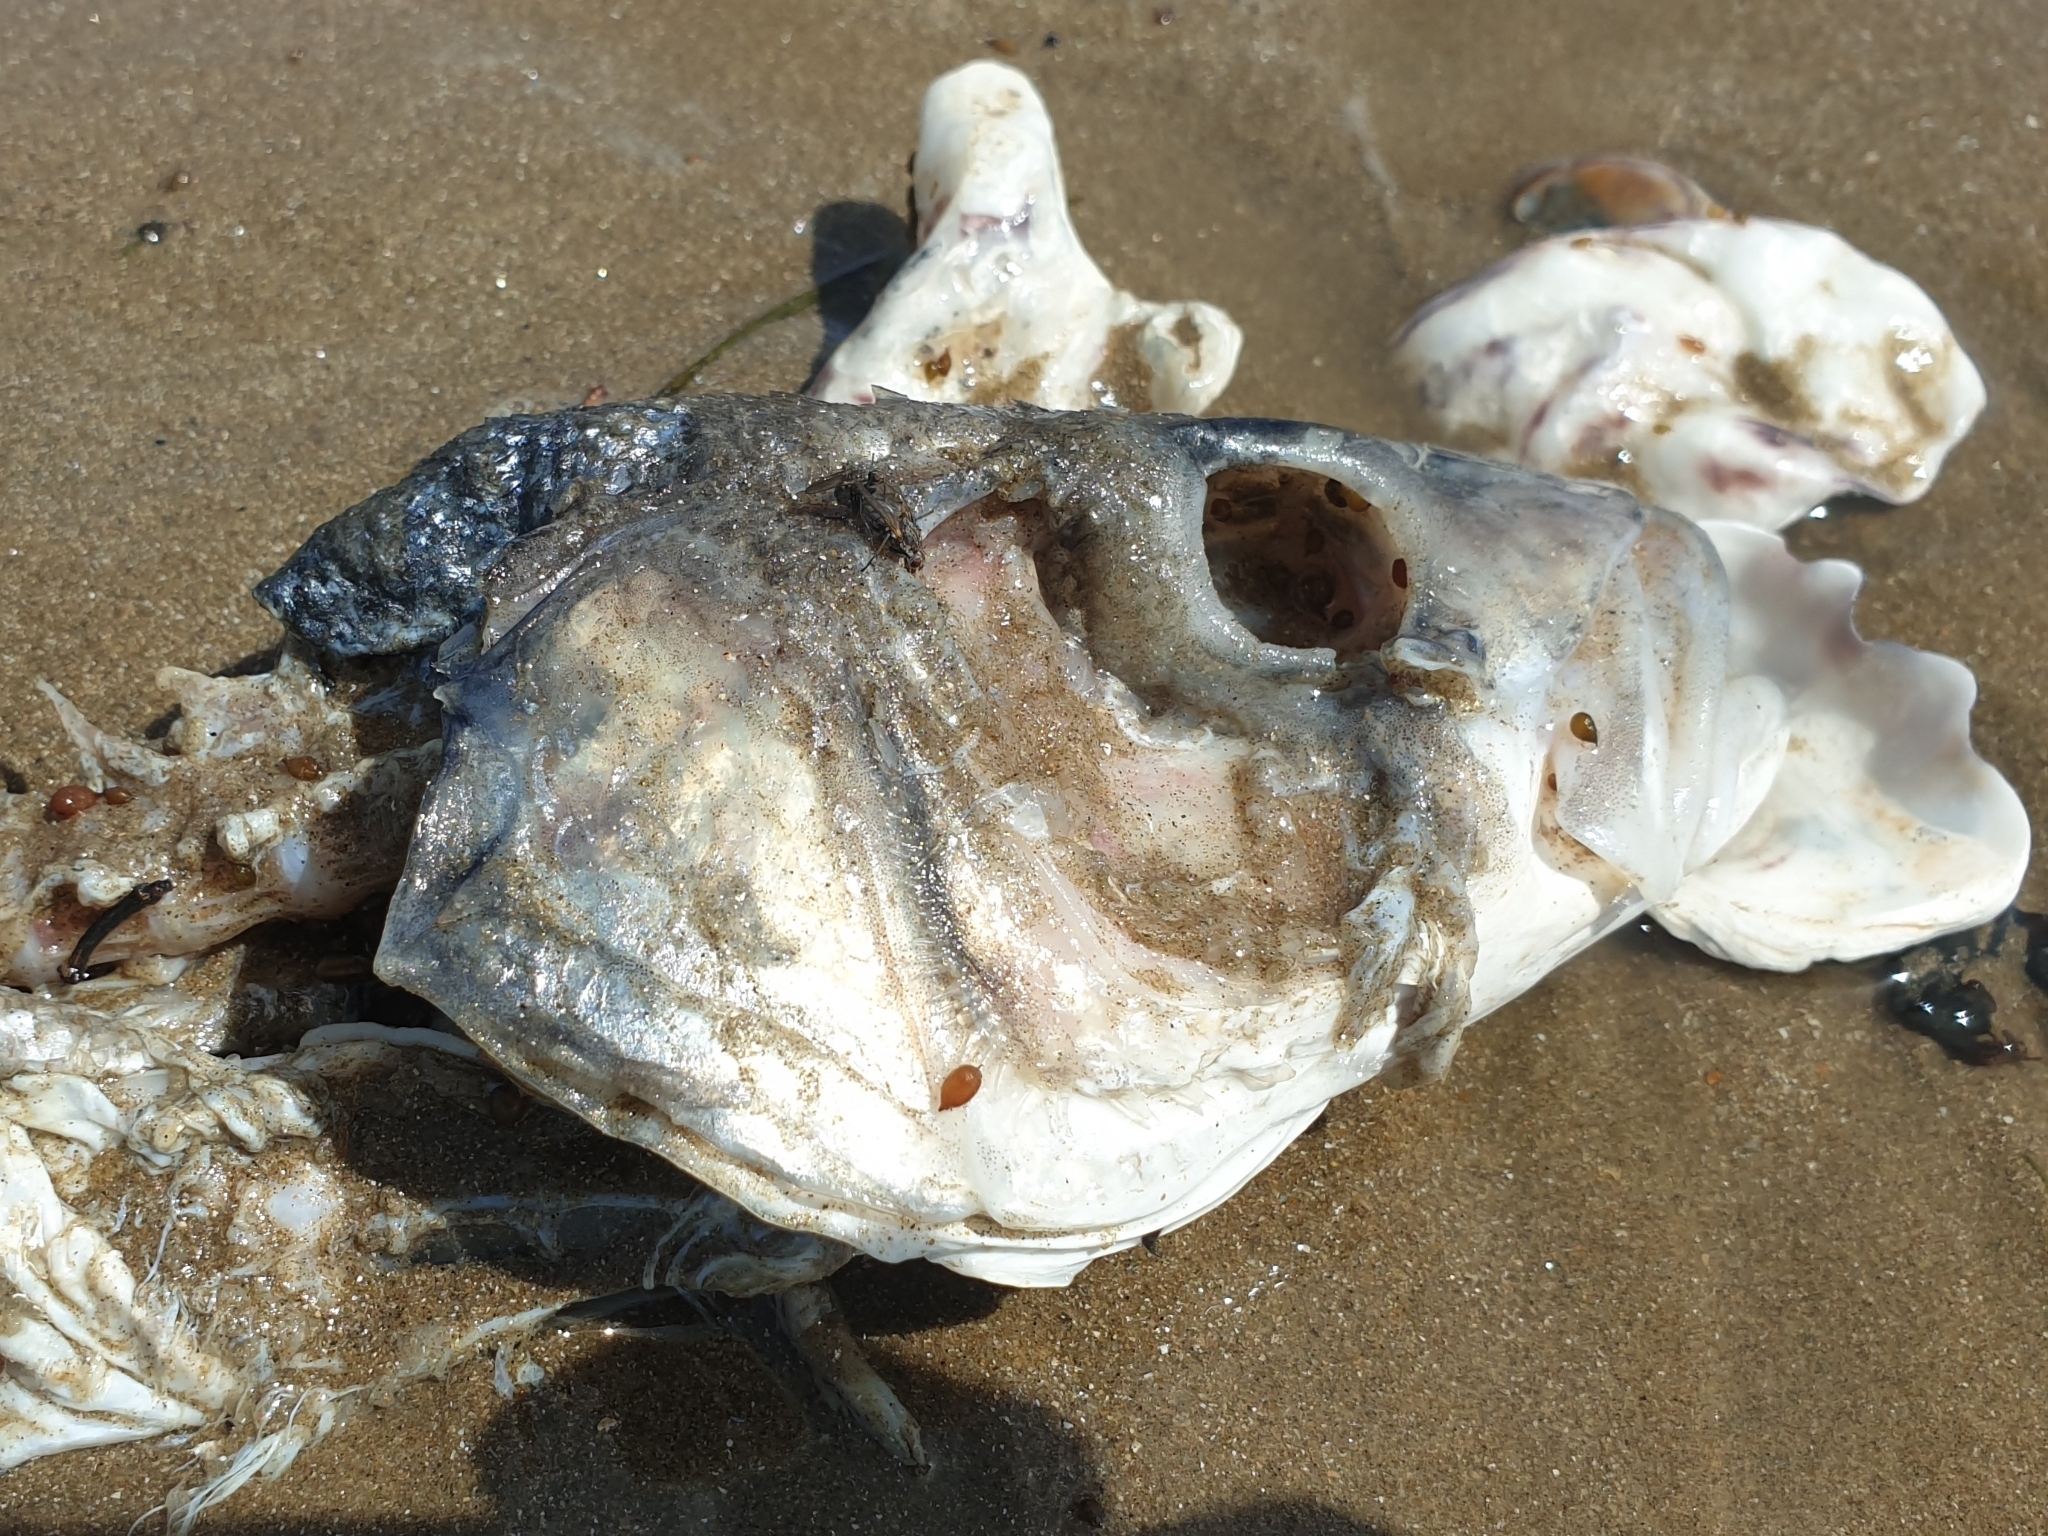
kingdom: Animalia
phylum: Chordata
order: Perciformes
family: Moronidae
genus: Dicentrarchus
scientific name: Dicentrarchus labrax
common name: European seabass
